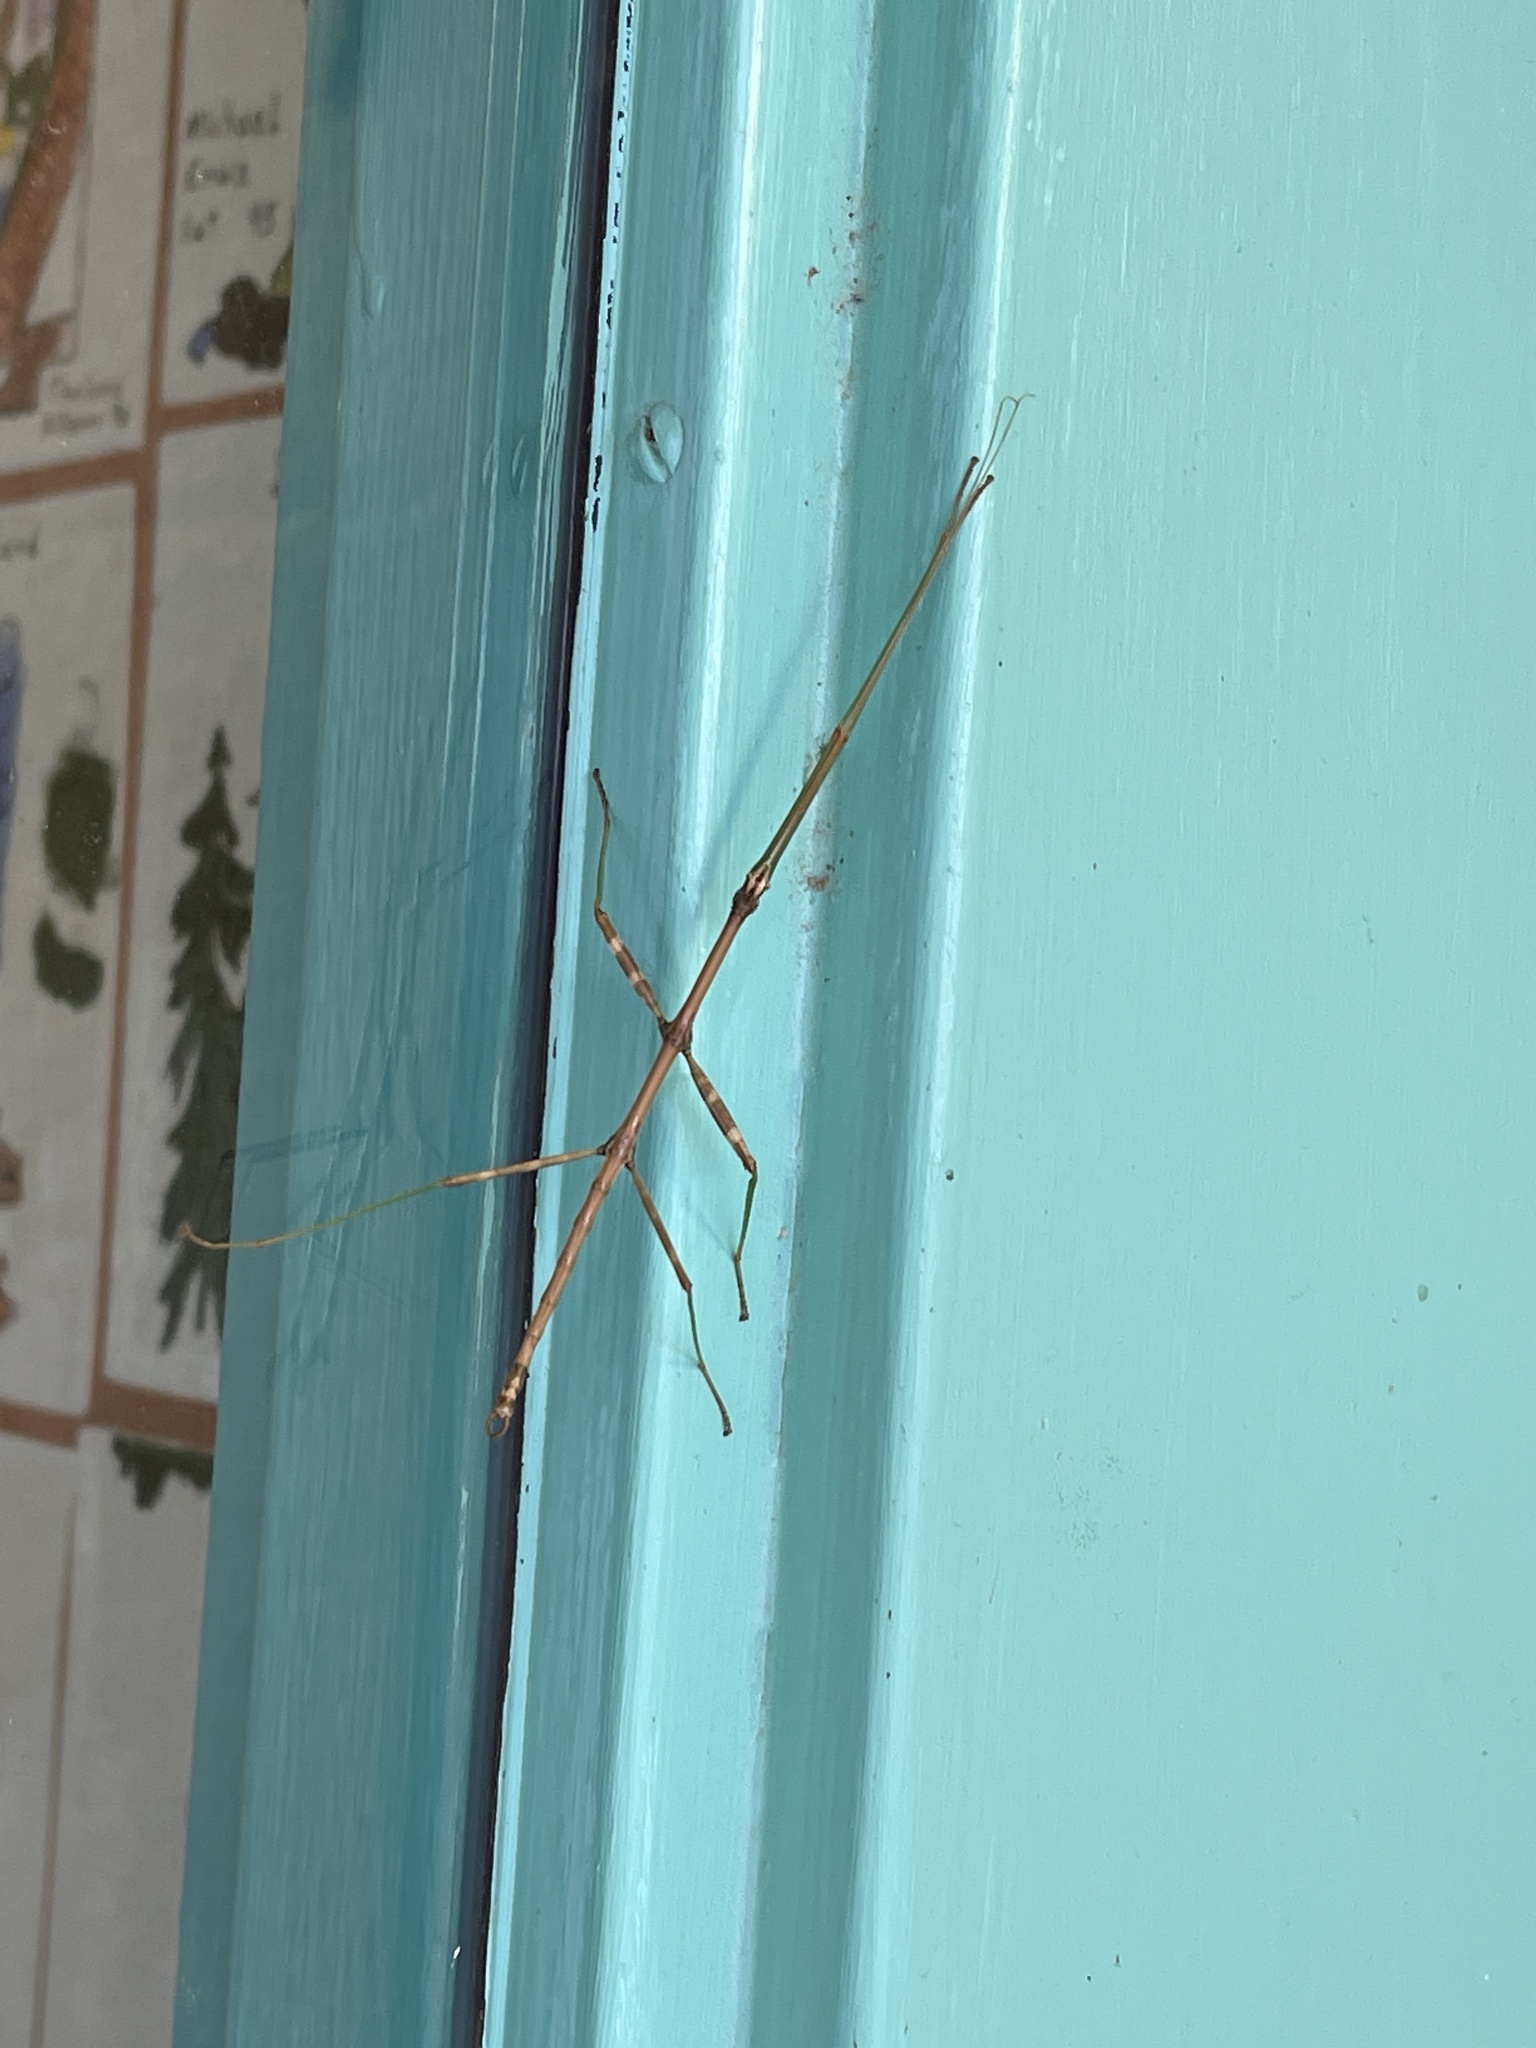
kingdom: Animalia
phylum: Arthropoda
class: Insecta
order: Phasmida
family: Diapheromeridae
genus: Diapheromera
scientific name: Diapheromera femorata
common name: Common american walkingstick
